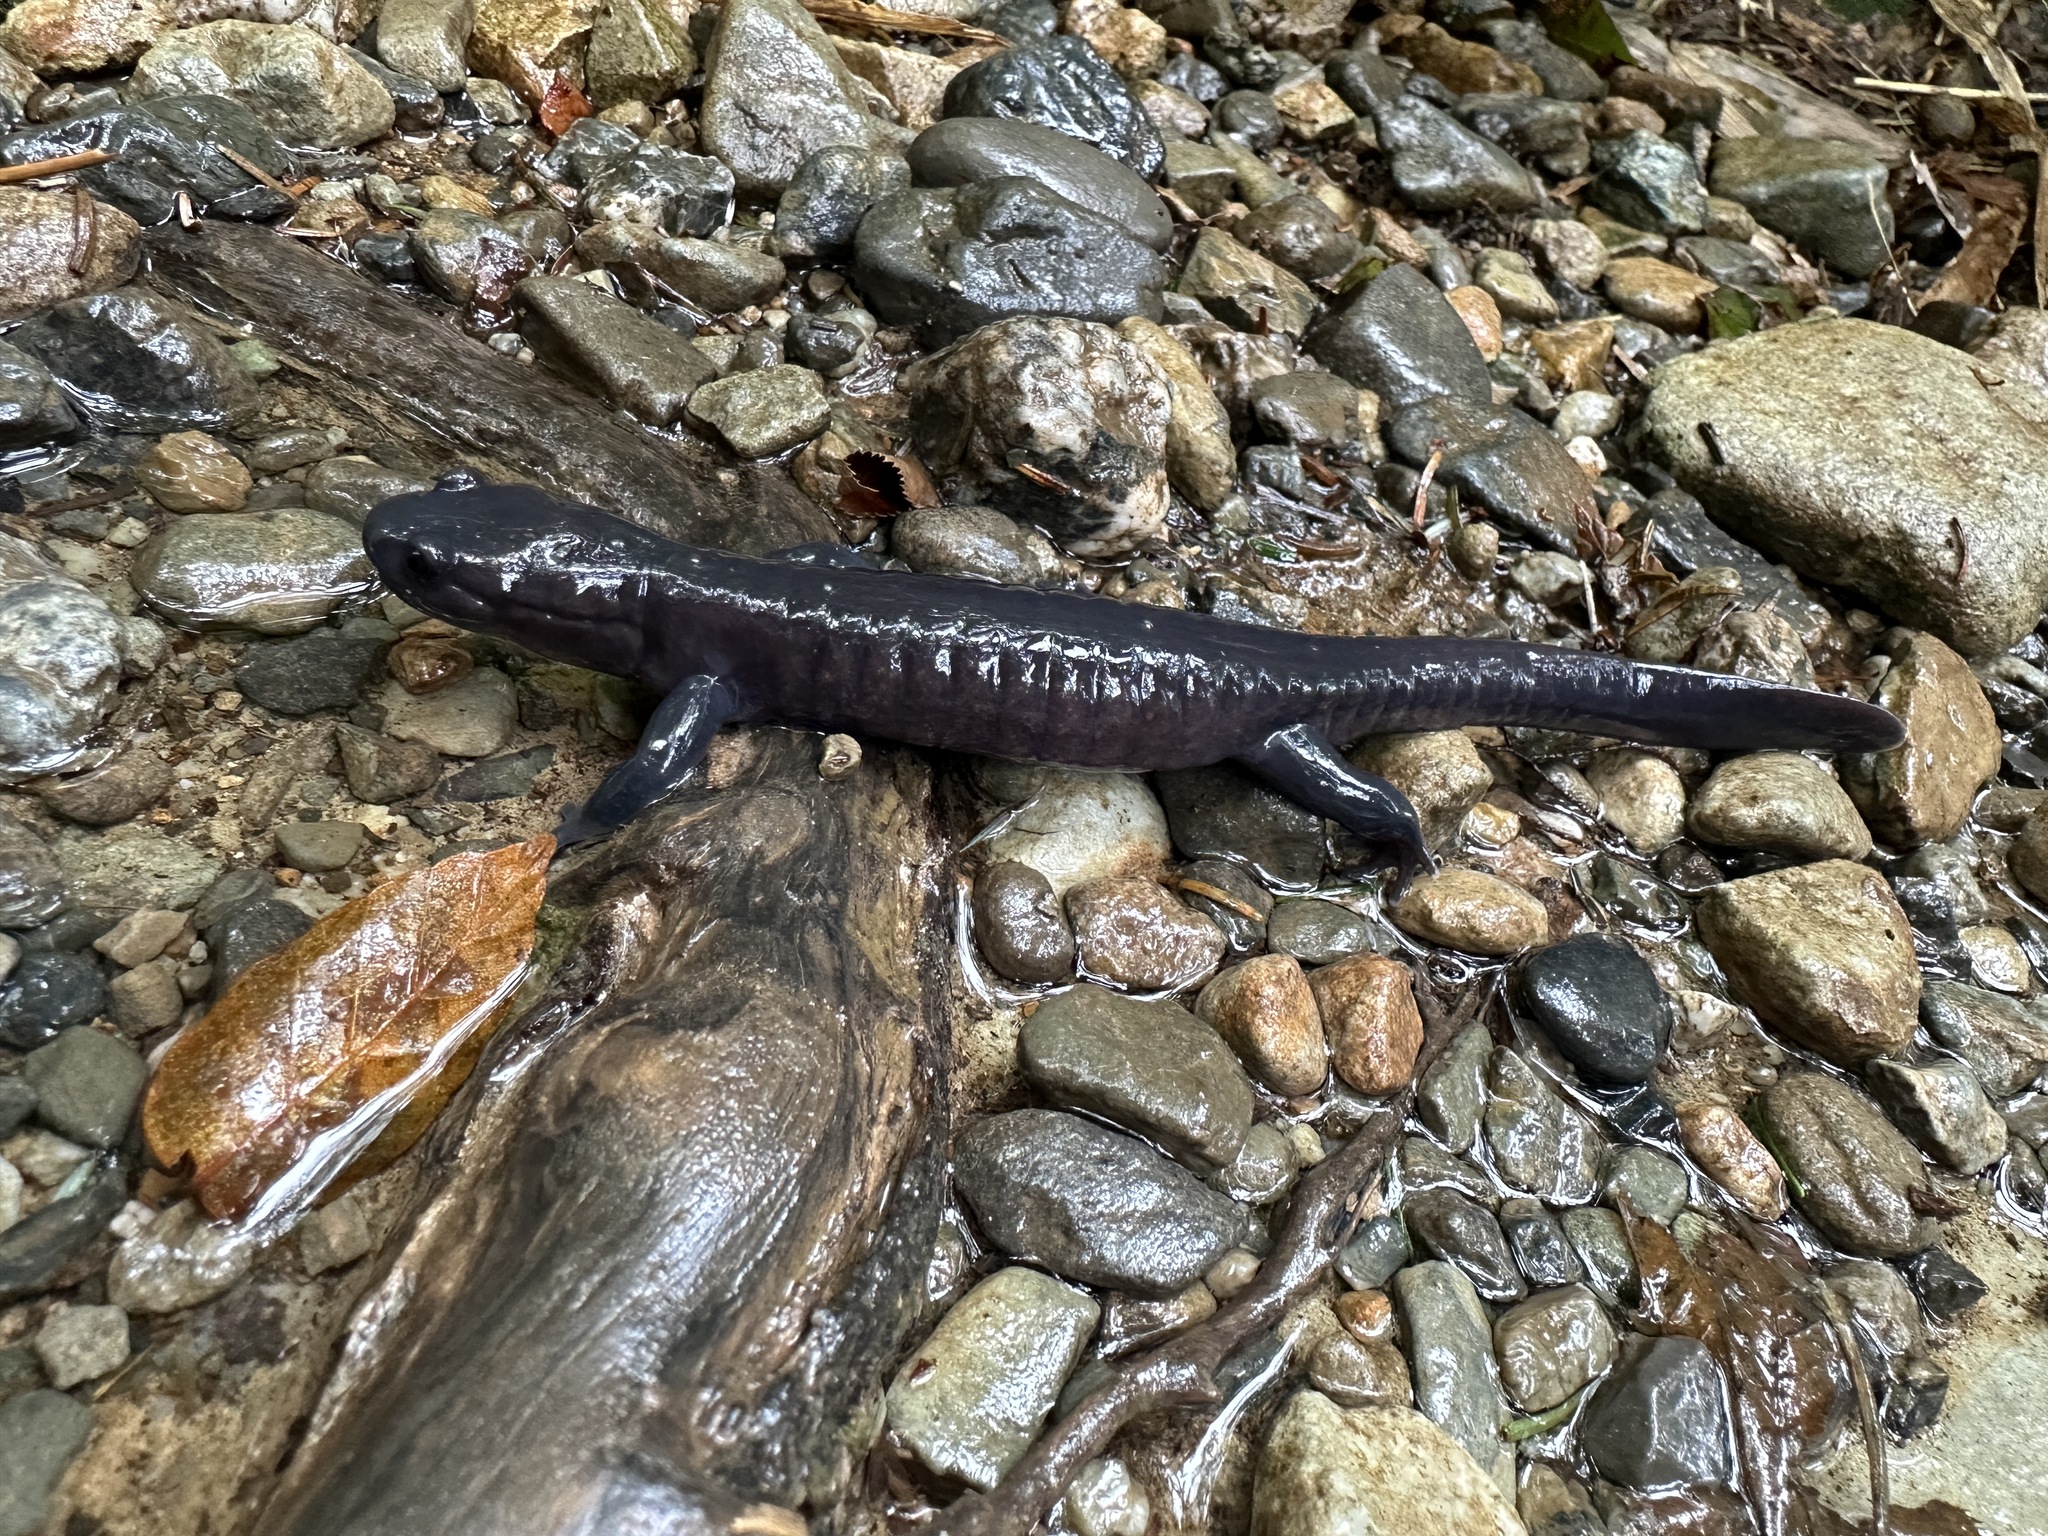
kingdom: Animalia
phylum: Chordata
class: Amphibia
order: Caudata
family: Hynobiidae
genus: Hynobius
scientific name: Hynobius boulengeri
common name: Boulengers oriental salamander
